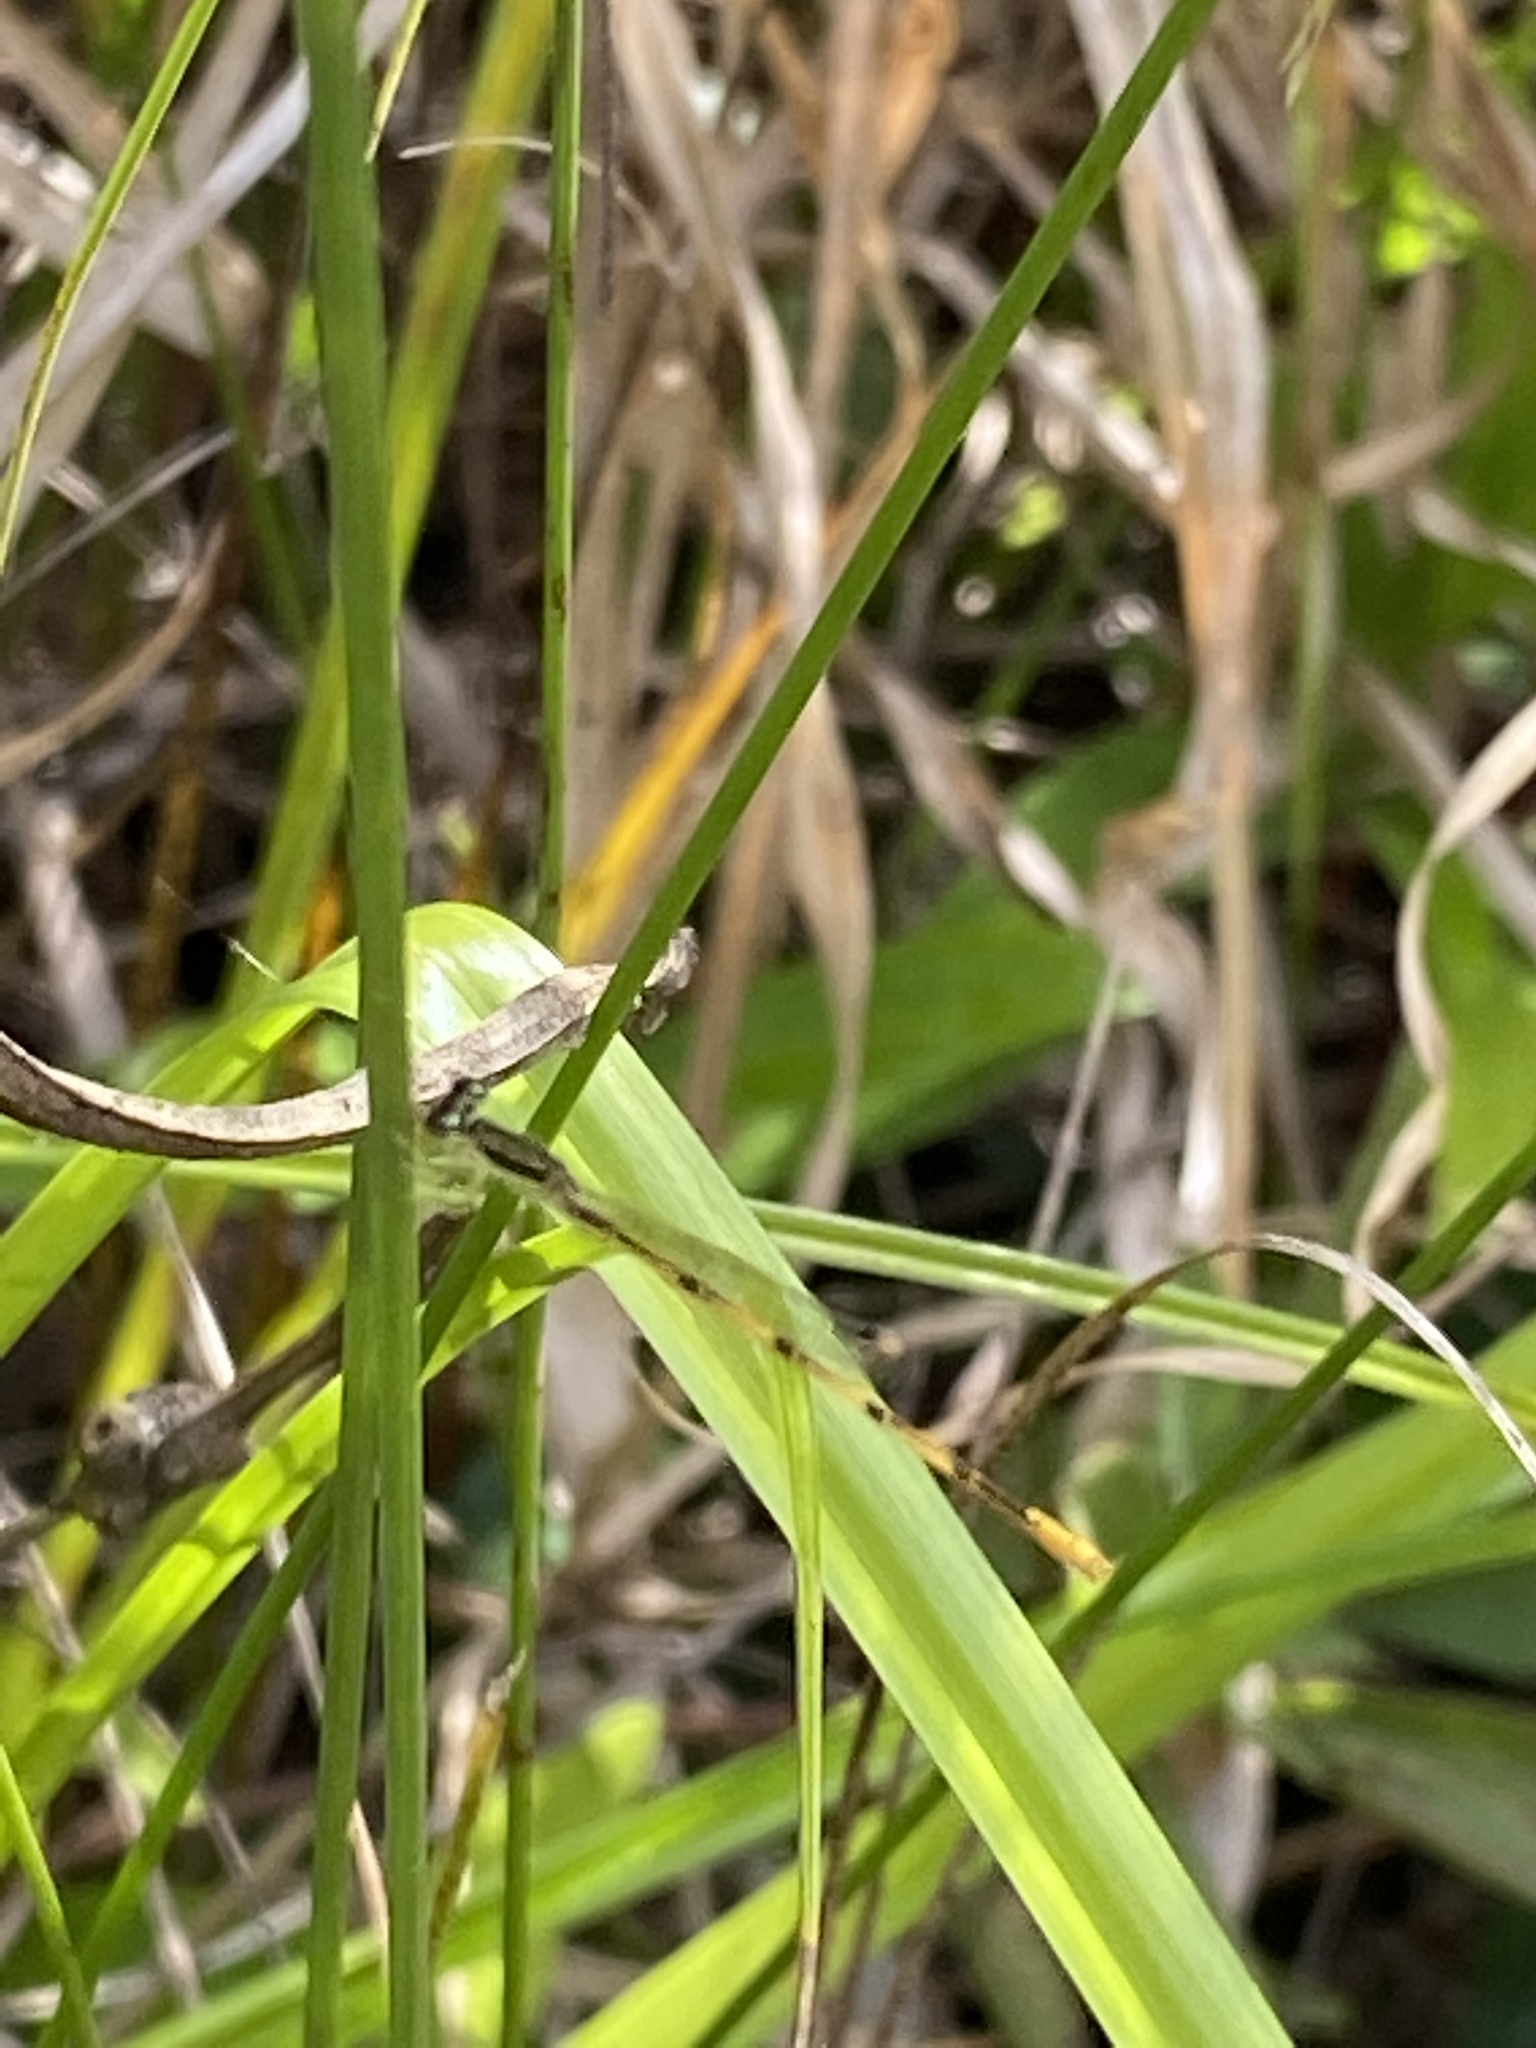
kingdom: Animalia
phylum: Arthropoda
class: Insecta
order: Odonata
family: Coenagrionidae
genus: Ischnura
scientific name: Ischnura hastata
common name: Citrine forktail
